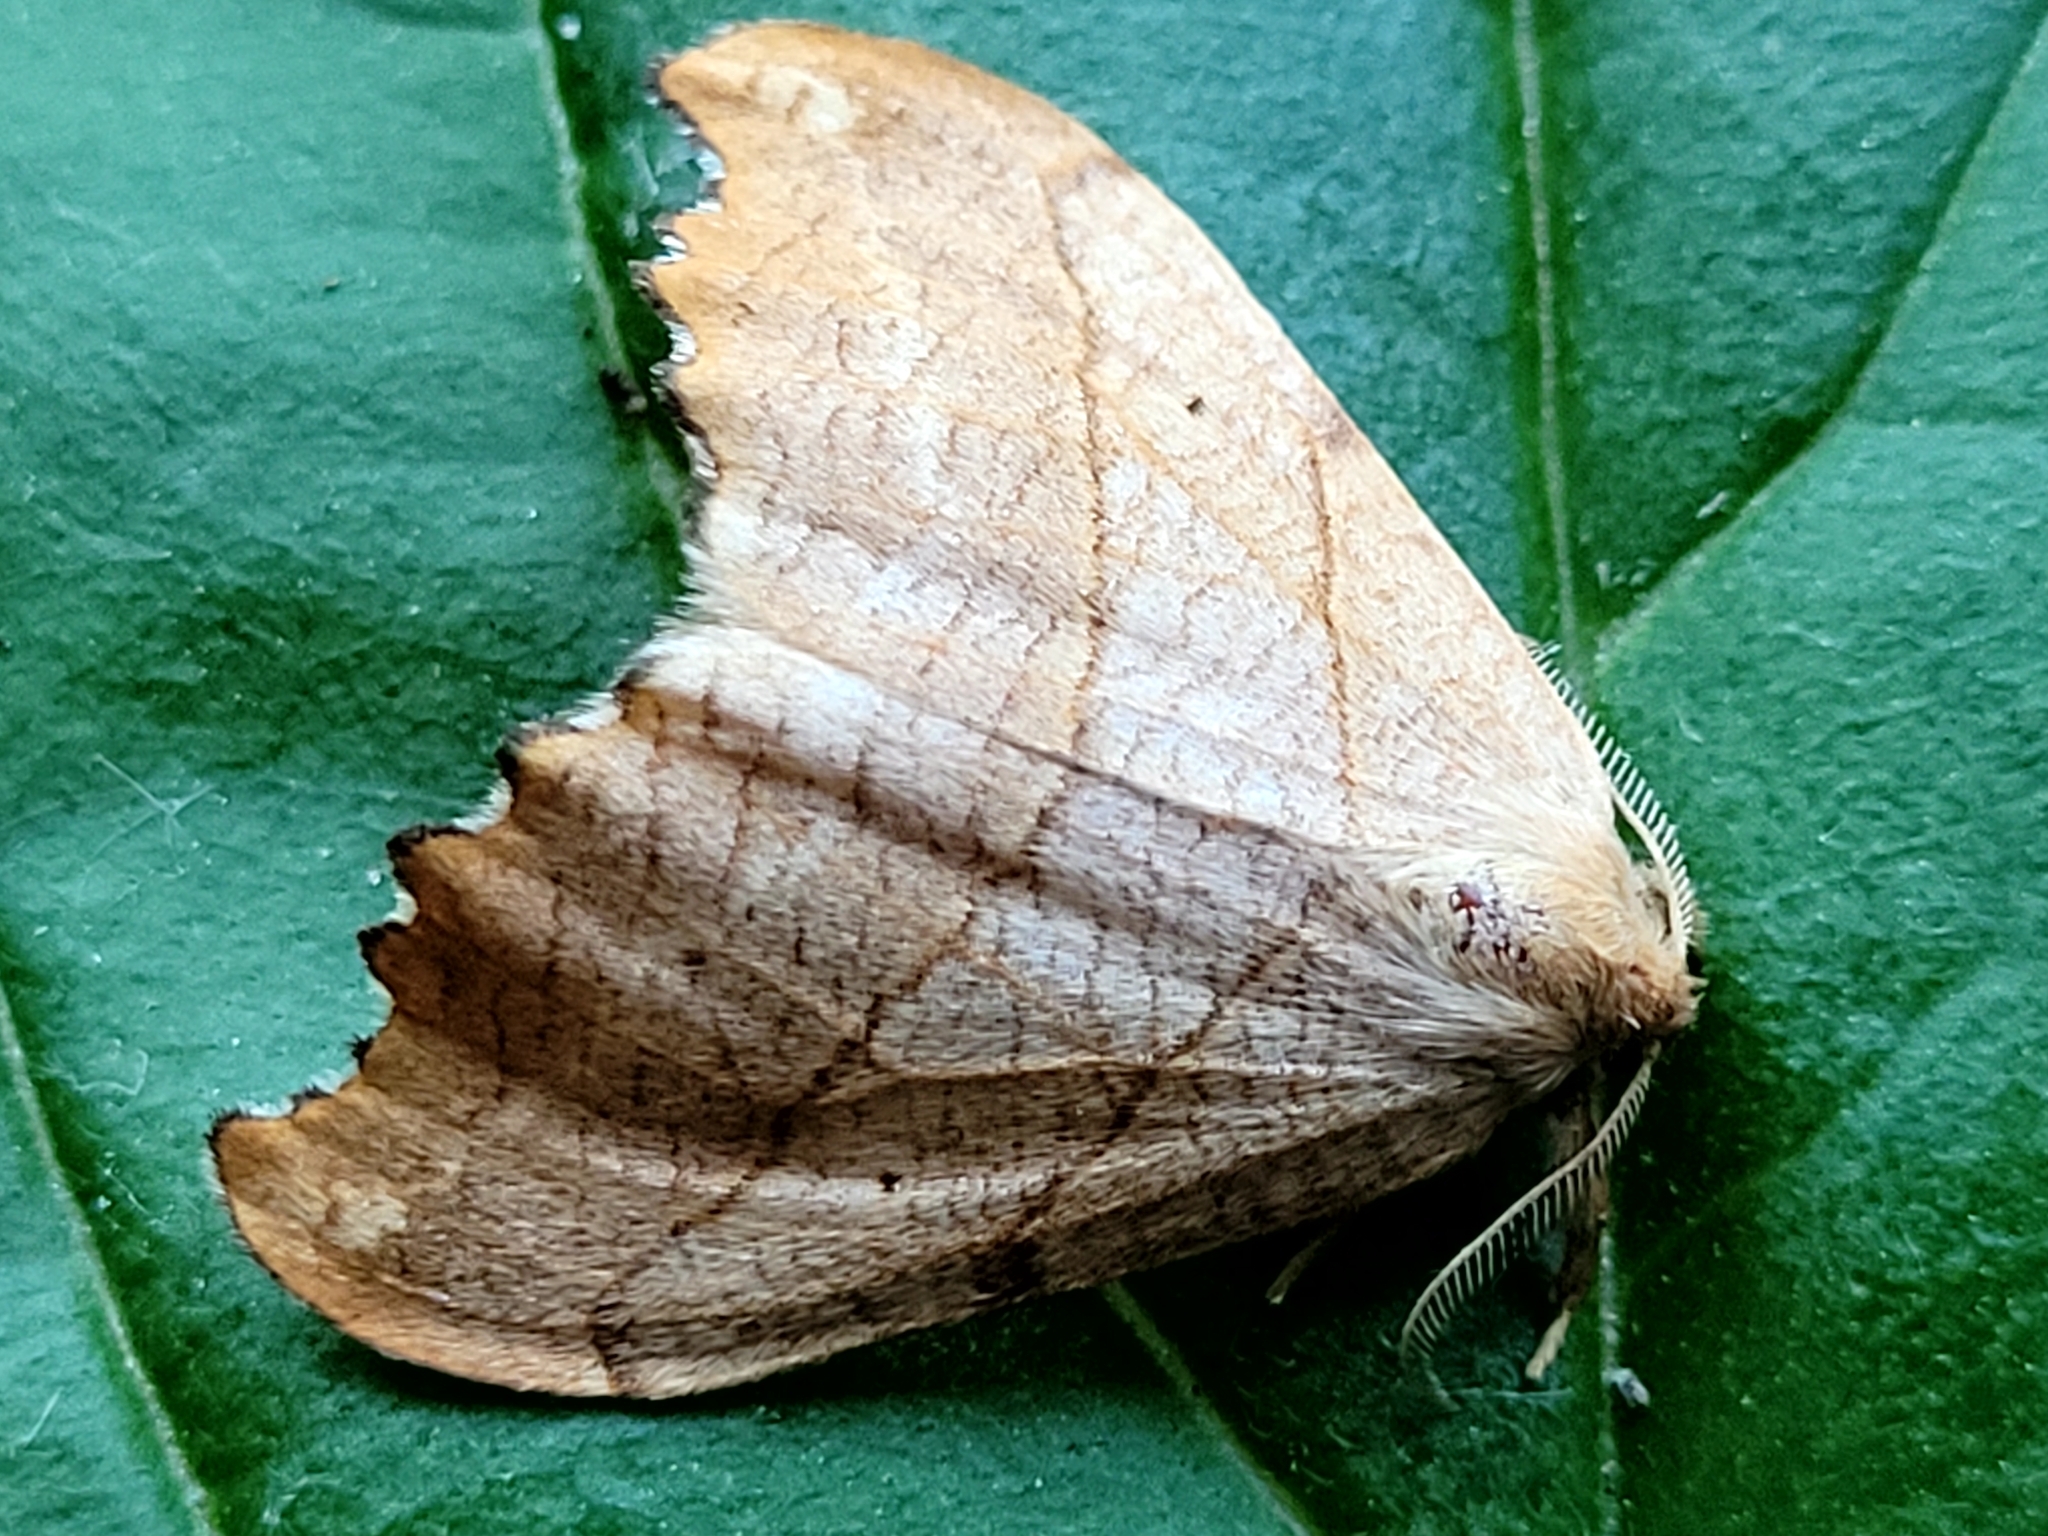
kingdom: Animalia
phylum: Arthropoda
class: Insecta
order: Lepidoptera
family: Drepanidae
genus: Falcaria
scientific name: Falcaria bilineata
